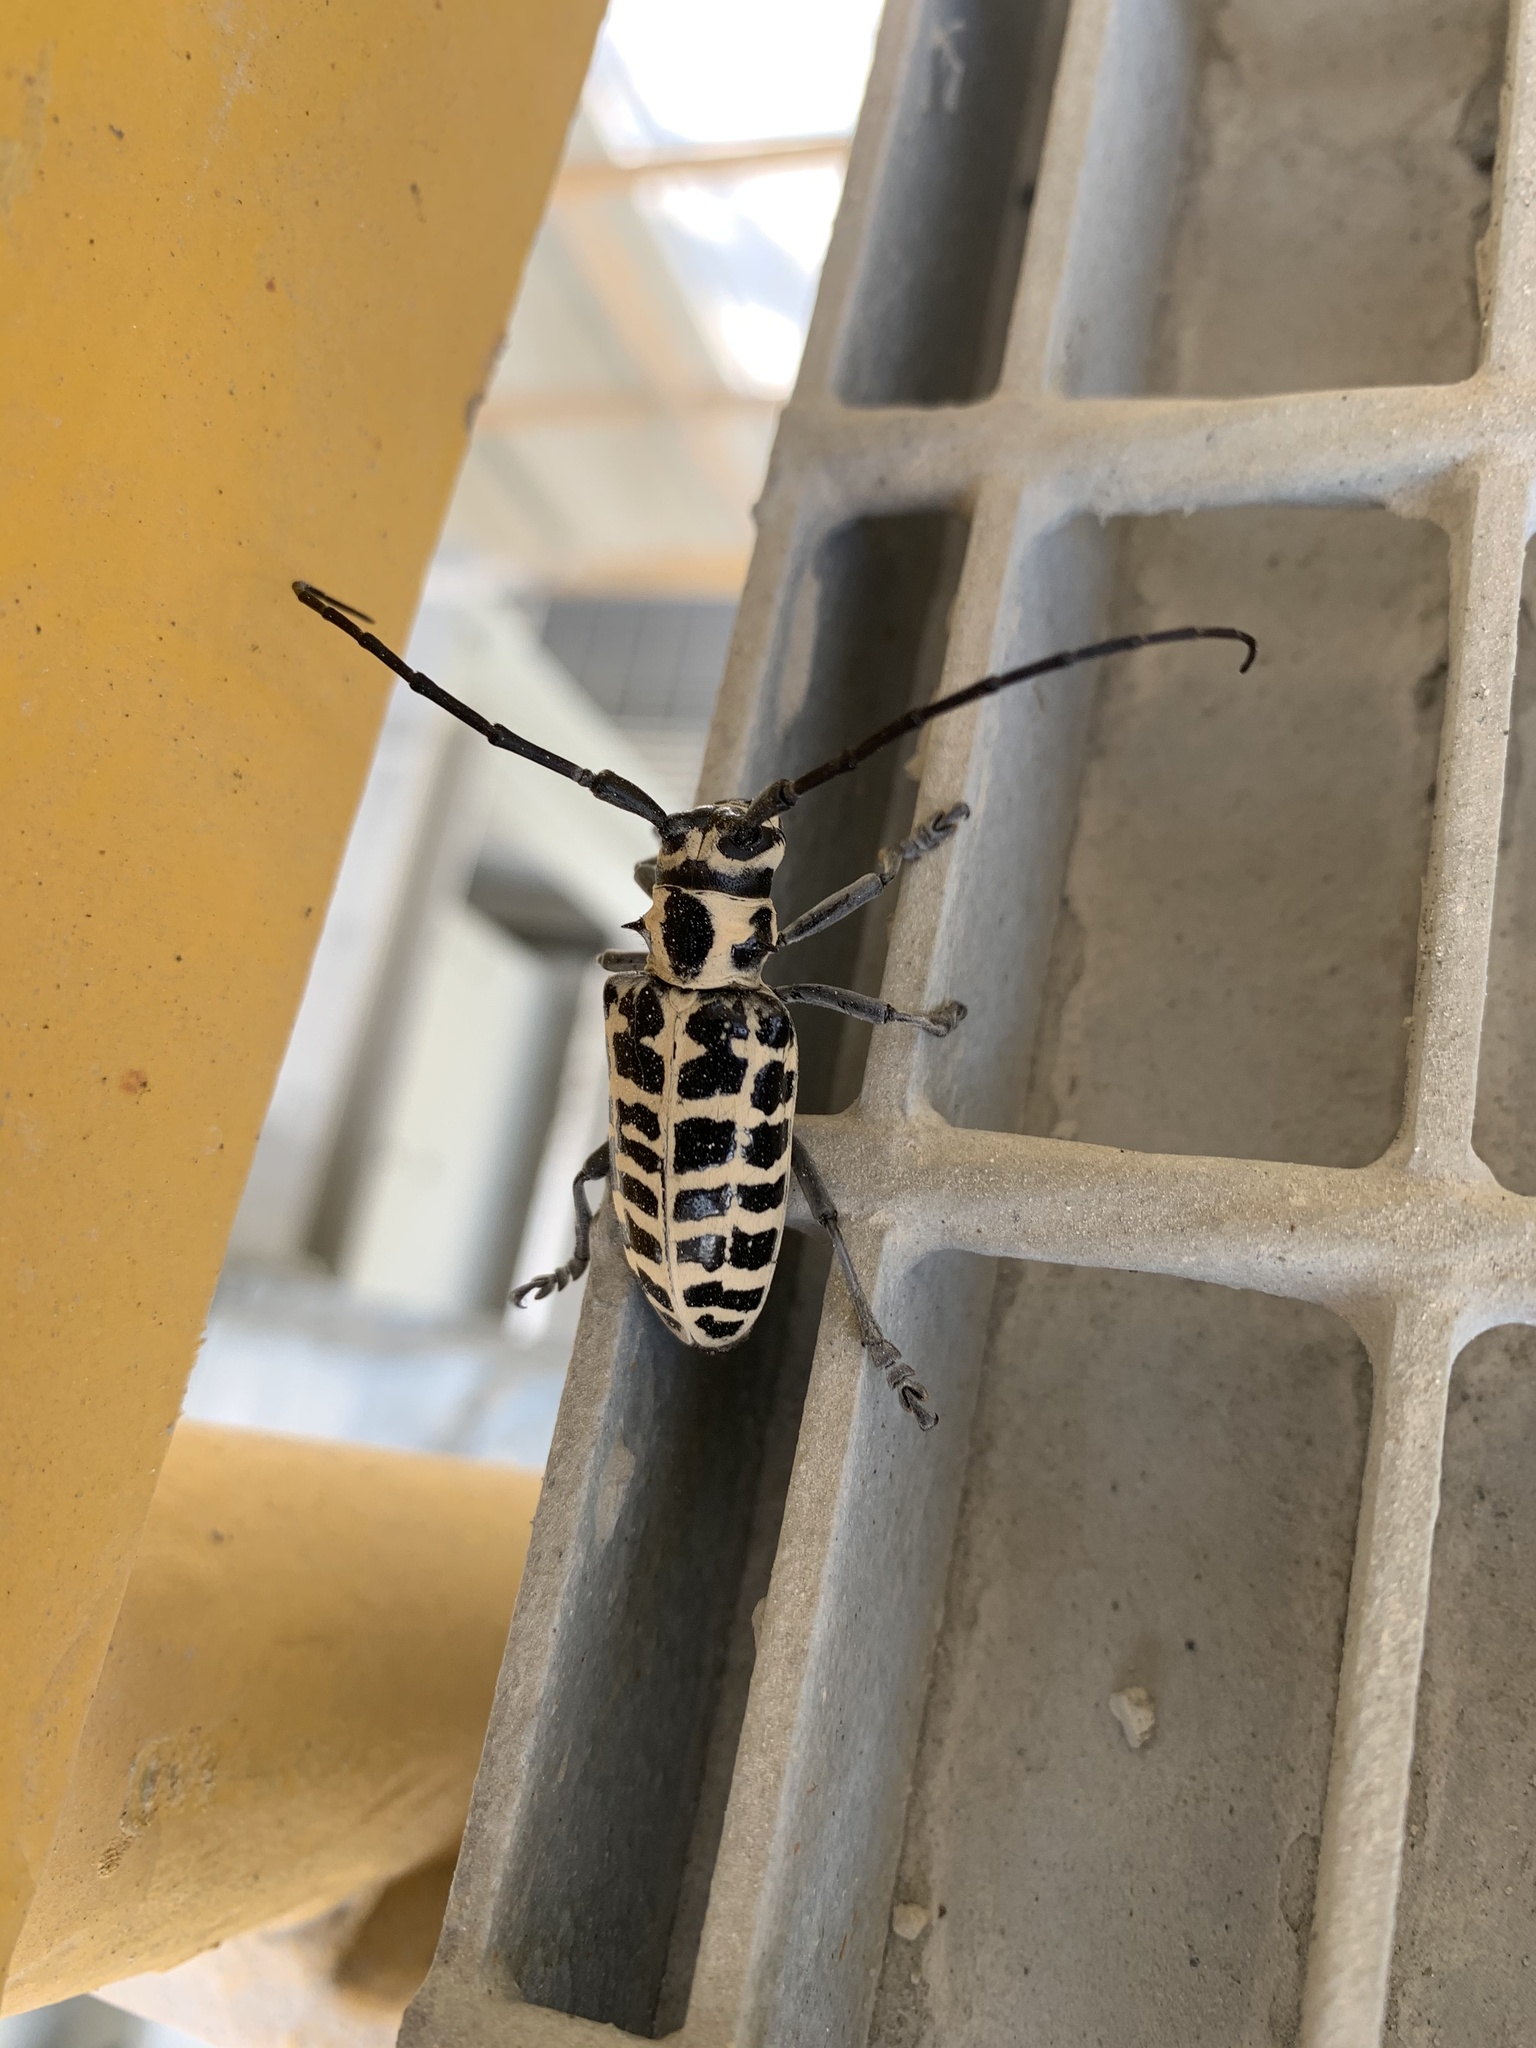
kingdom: Animalia
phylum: Arthropoda
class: Insecta
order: Coleoptera
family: Cerambycidae
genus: Plectrodera
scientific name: Plectrodera scalator
